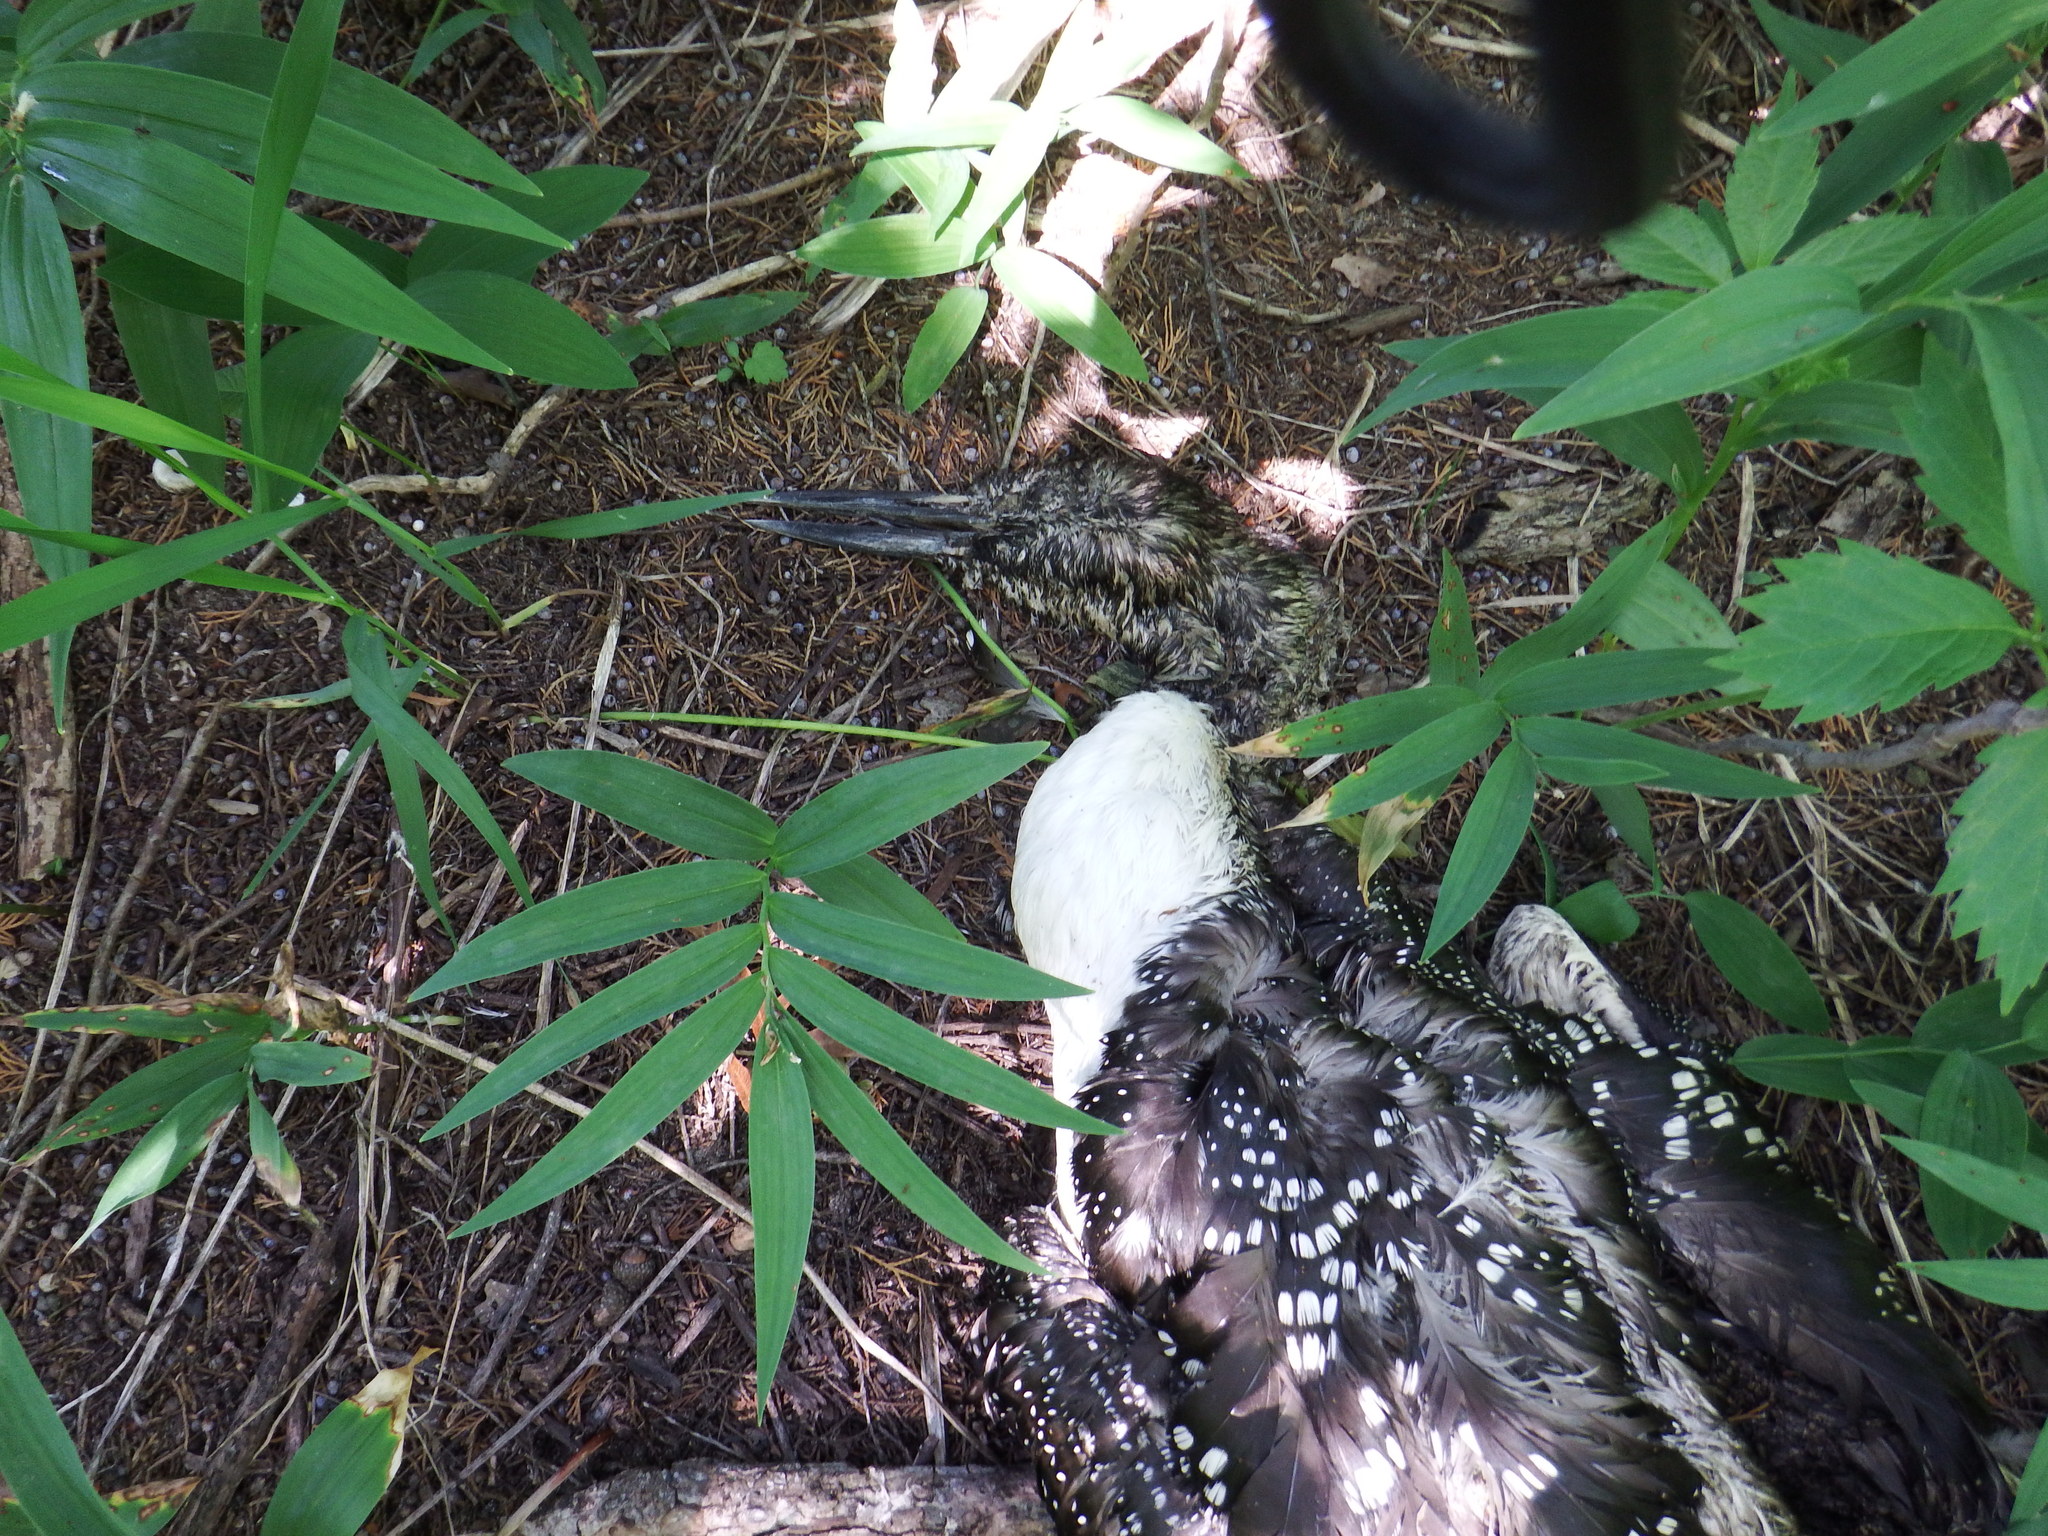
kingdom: Animalia
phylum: Chordata
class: Aves
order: Gaviiformes
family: Gaviidae
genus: Gavia
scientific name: Gavia immer
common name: Common loon
